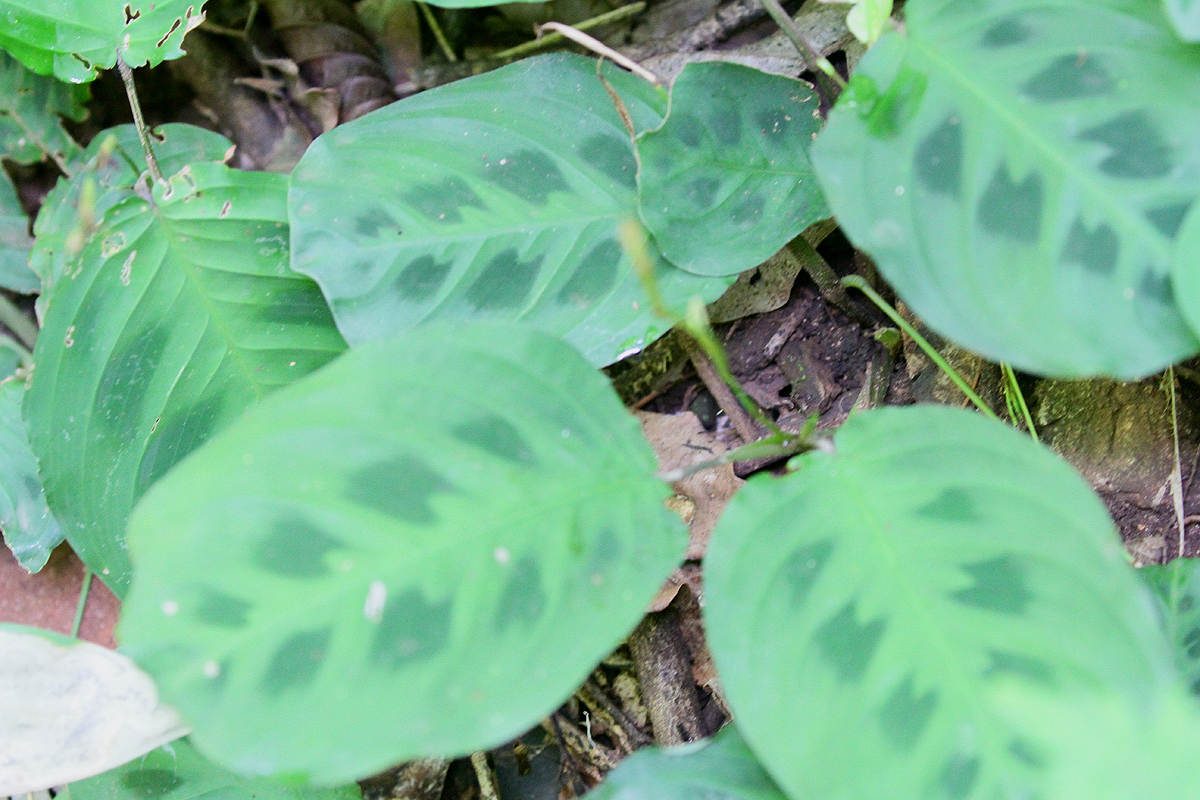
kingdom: Plantae
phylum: Tracheophyta
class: Liliopsida
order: Zingiberales
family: Marantaceae
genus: Maranta
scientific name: Maranta leuconeura
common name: Ten-commandments
